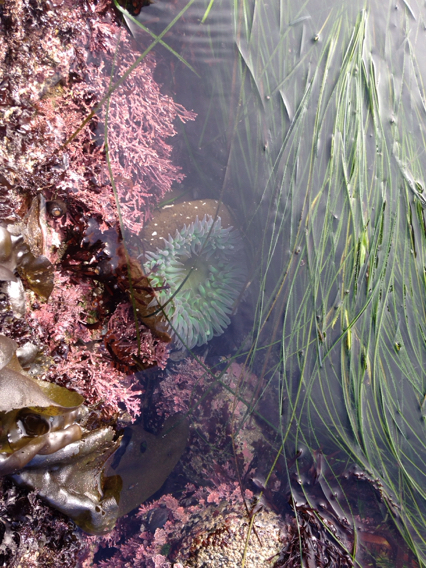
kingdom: Animalia
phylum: Cnidaria
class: Anthozoa
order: Actiniaria
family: Actiniidae
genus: Anthopleura
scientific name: Anthopleura xanthogrammica
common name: Giant green anemone
